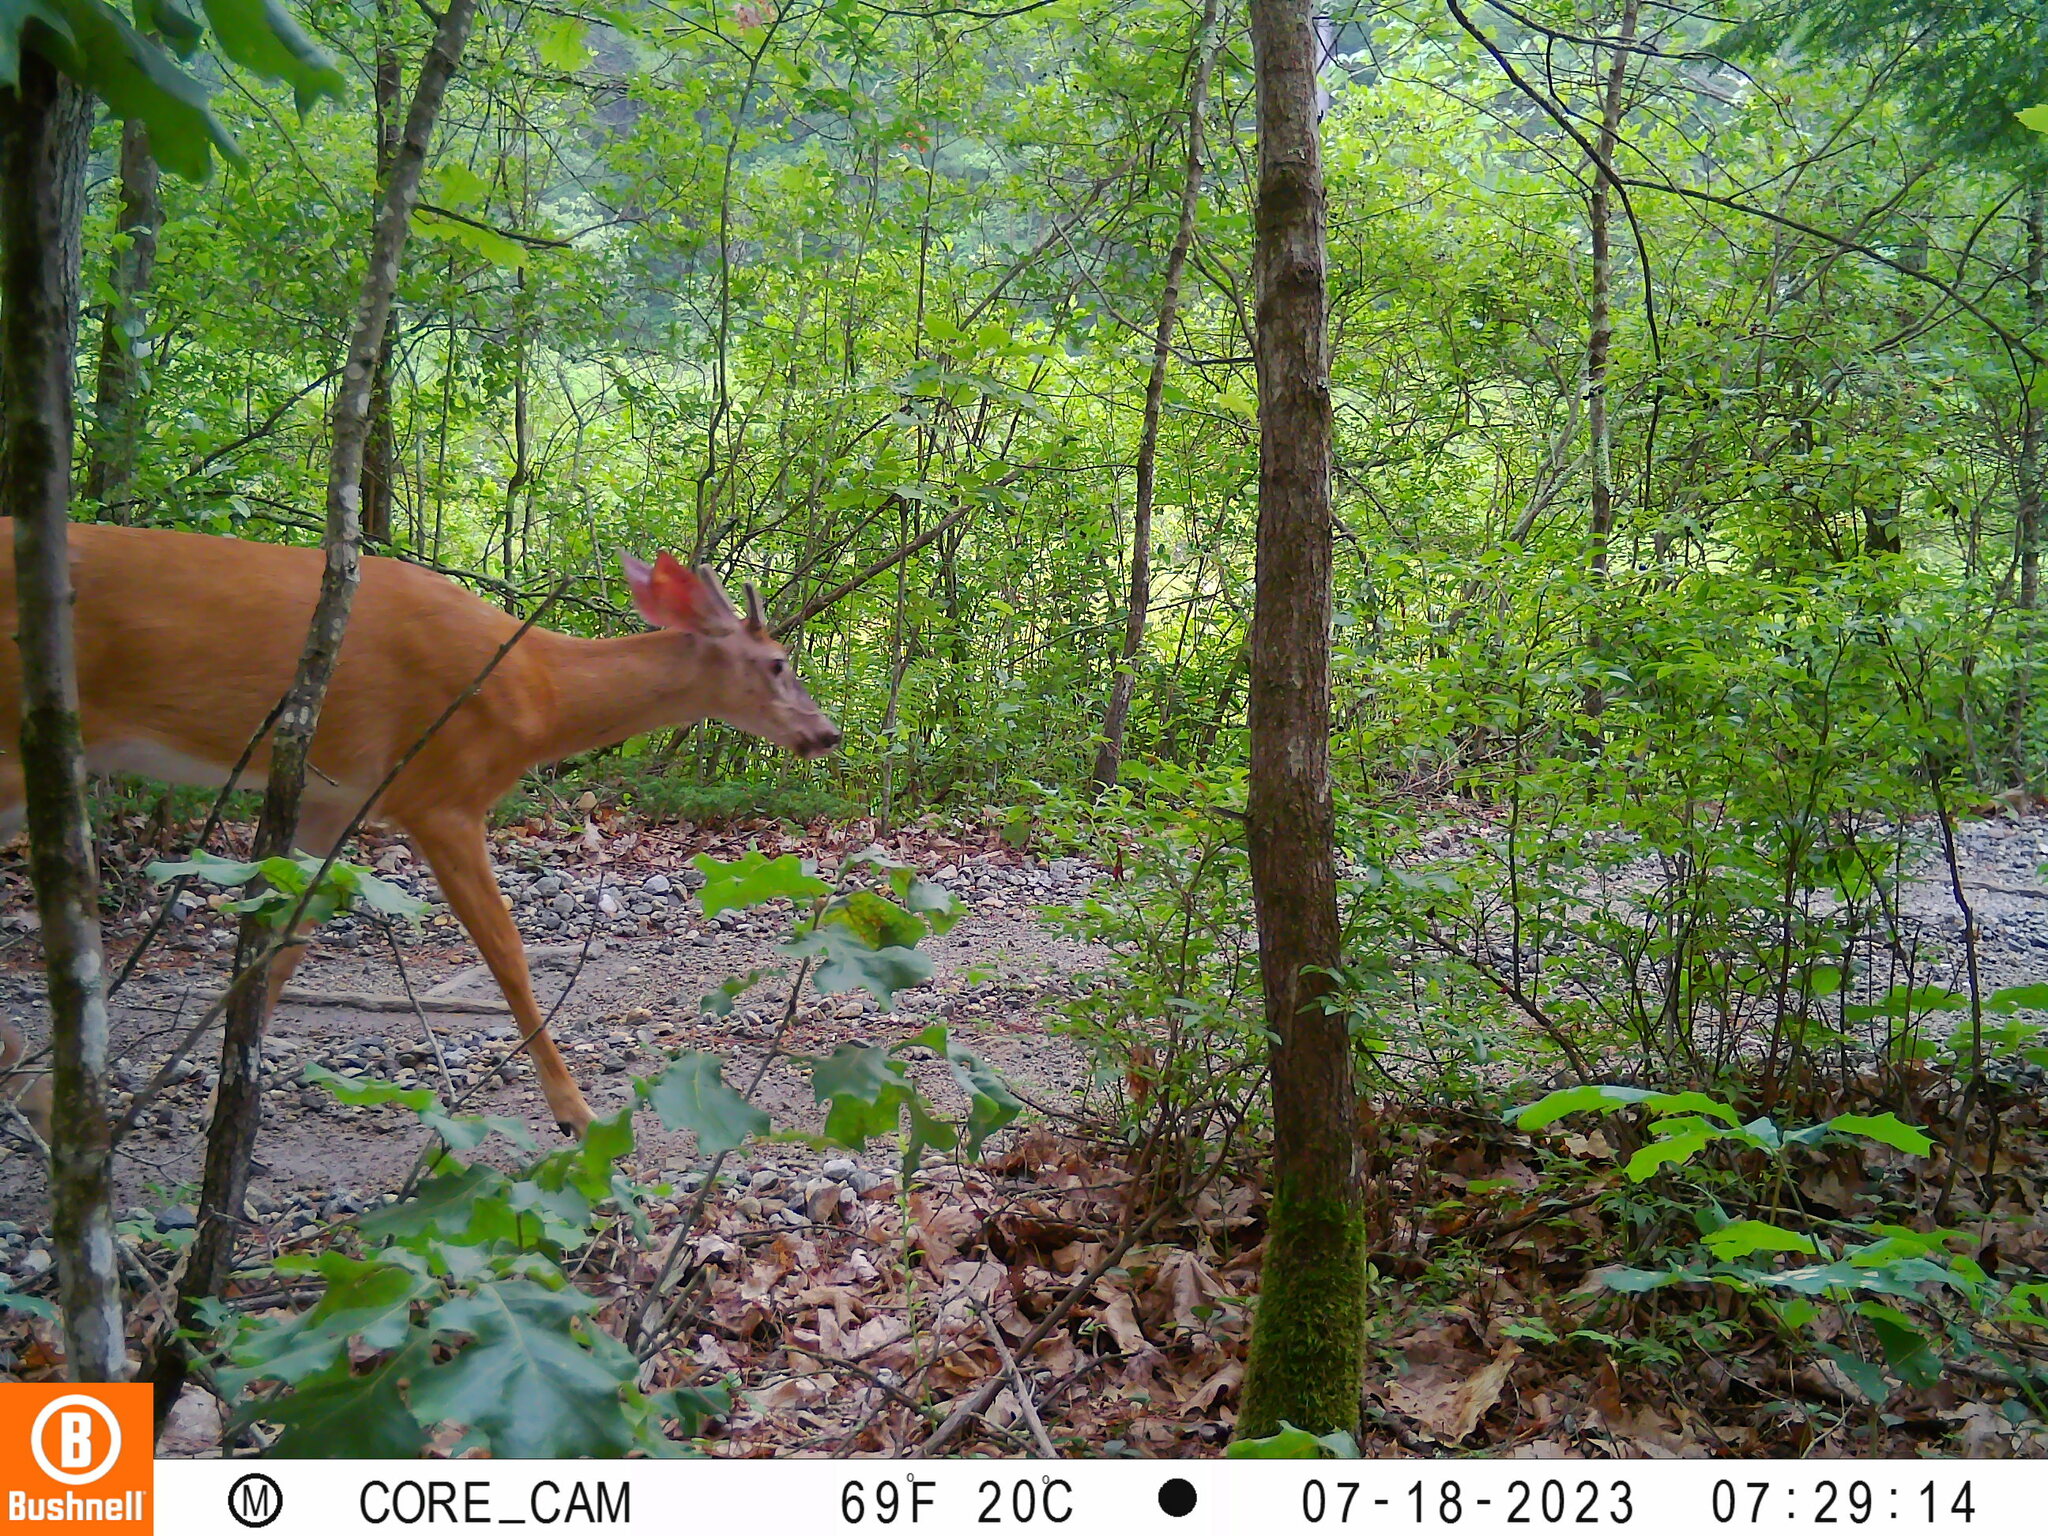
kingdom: Animalia
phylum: Chordata
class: Mammalia
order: Artiodactyla
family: Cervidae
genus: Odocoileus
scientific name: Odocoileus virginianus
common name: White-tailed deer
